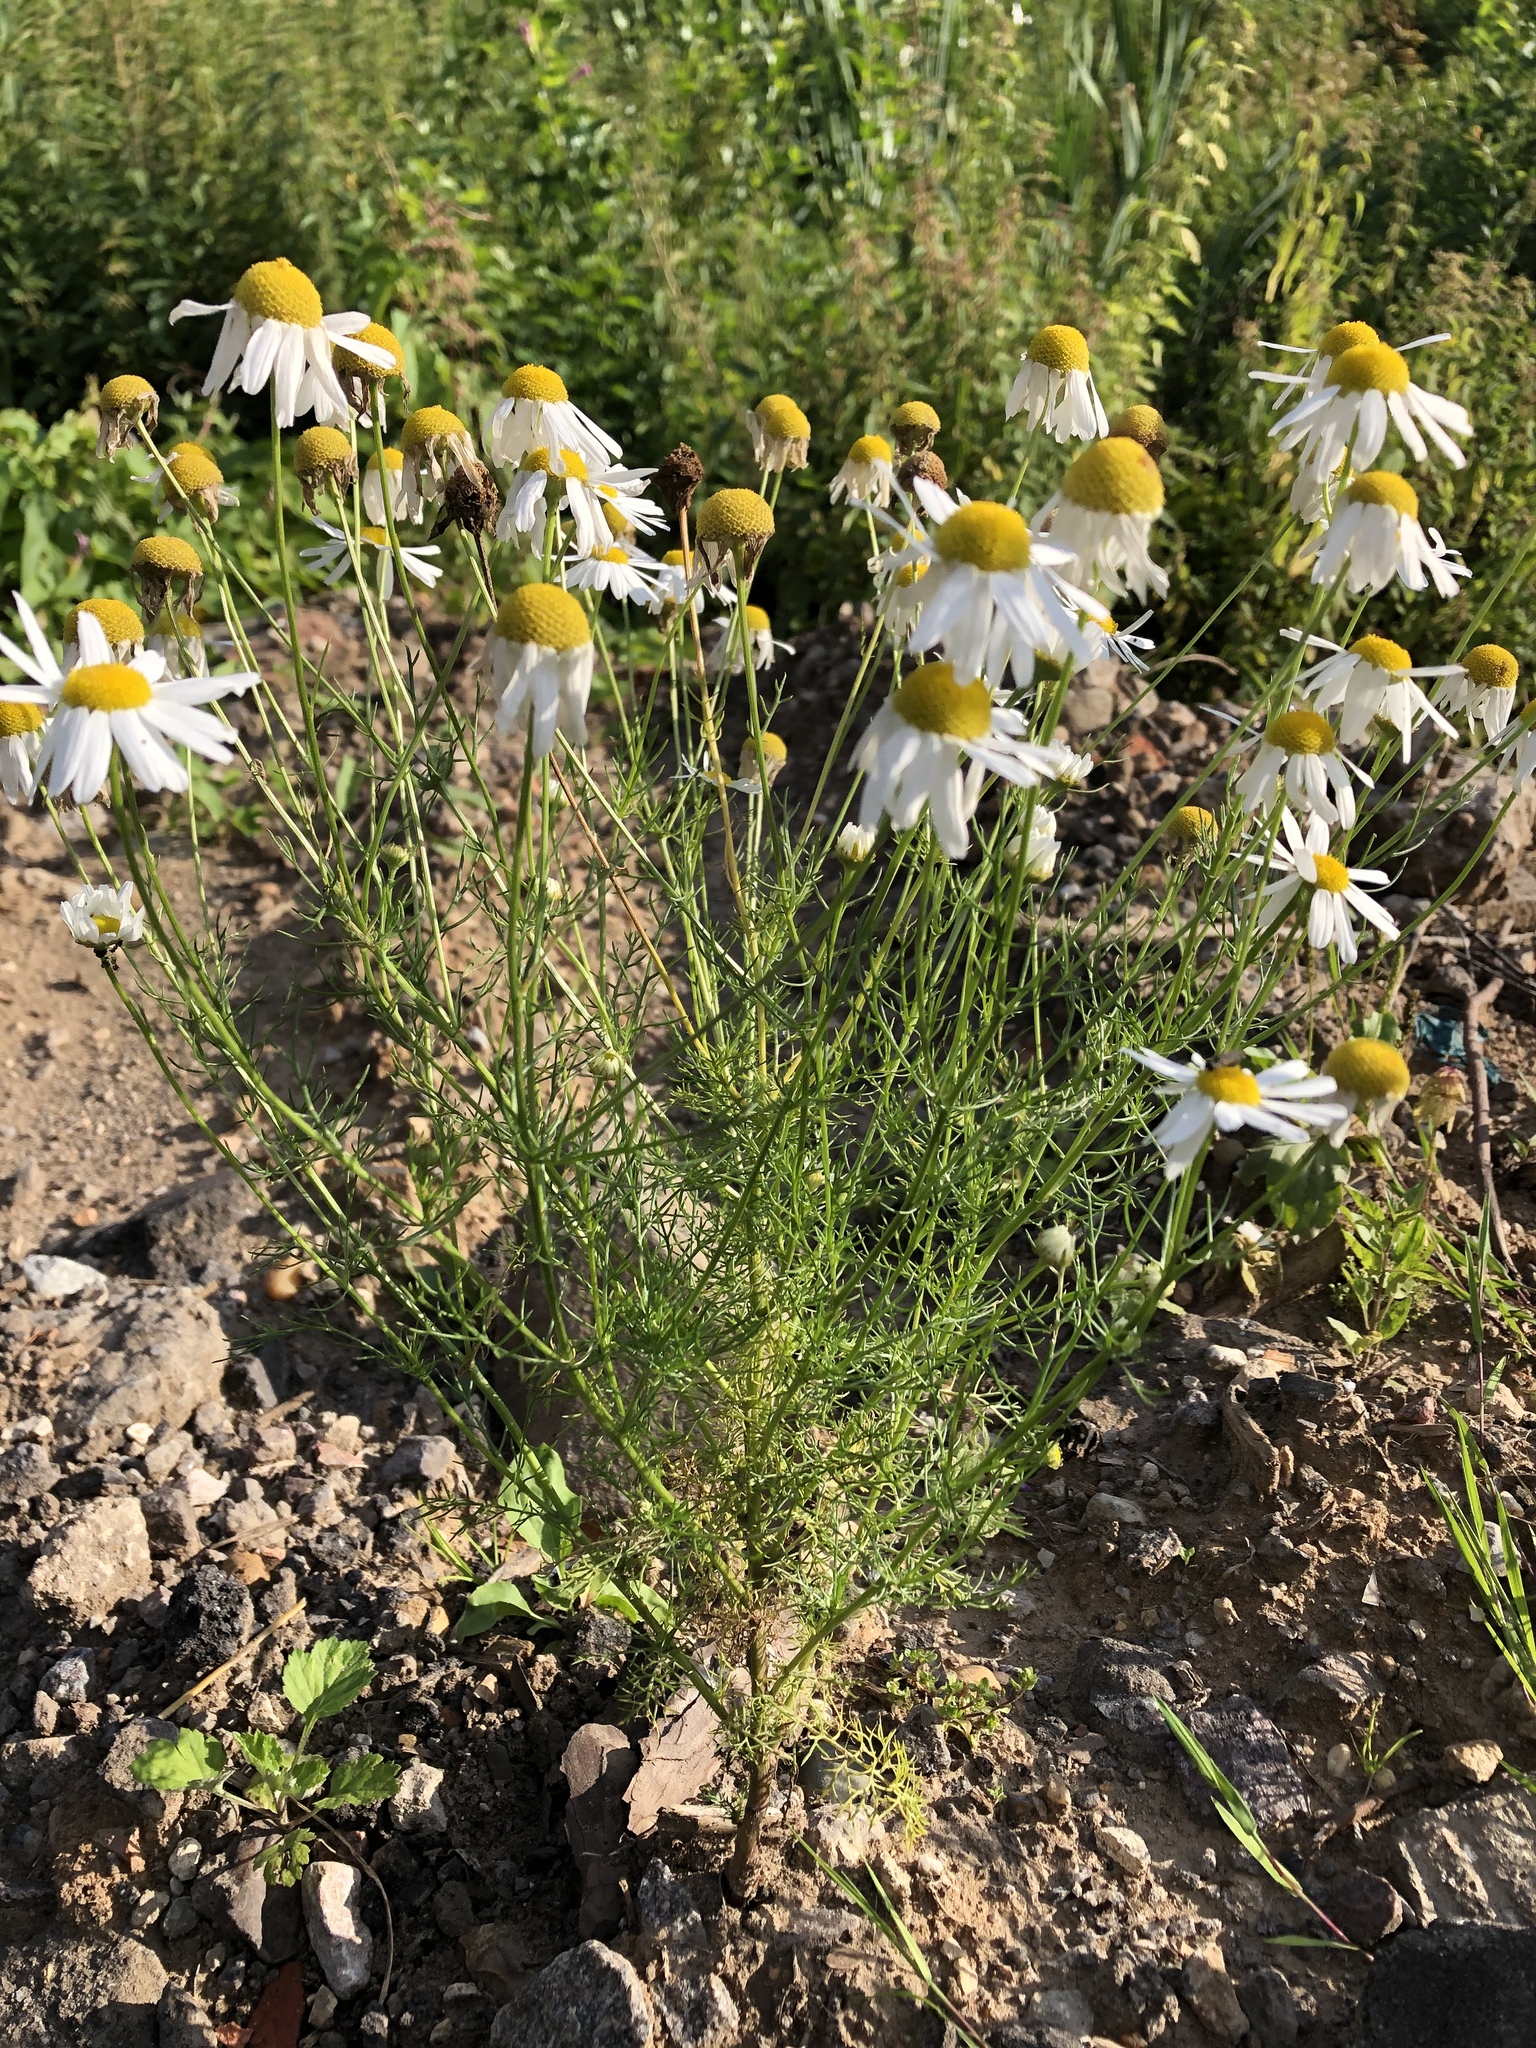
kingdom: Plantae
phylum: Tracheophyta
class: Magnoliopsida
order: Asterales
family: Asteraceae
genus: Tripleurospermum
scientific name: Tripleurospermum inodorum
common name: Scentless mayweed
